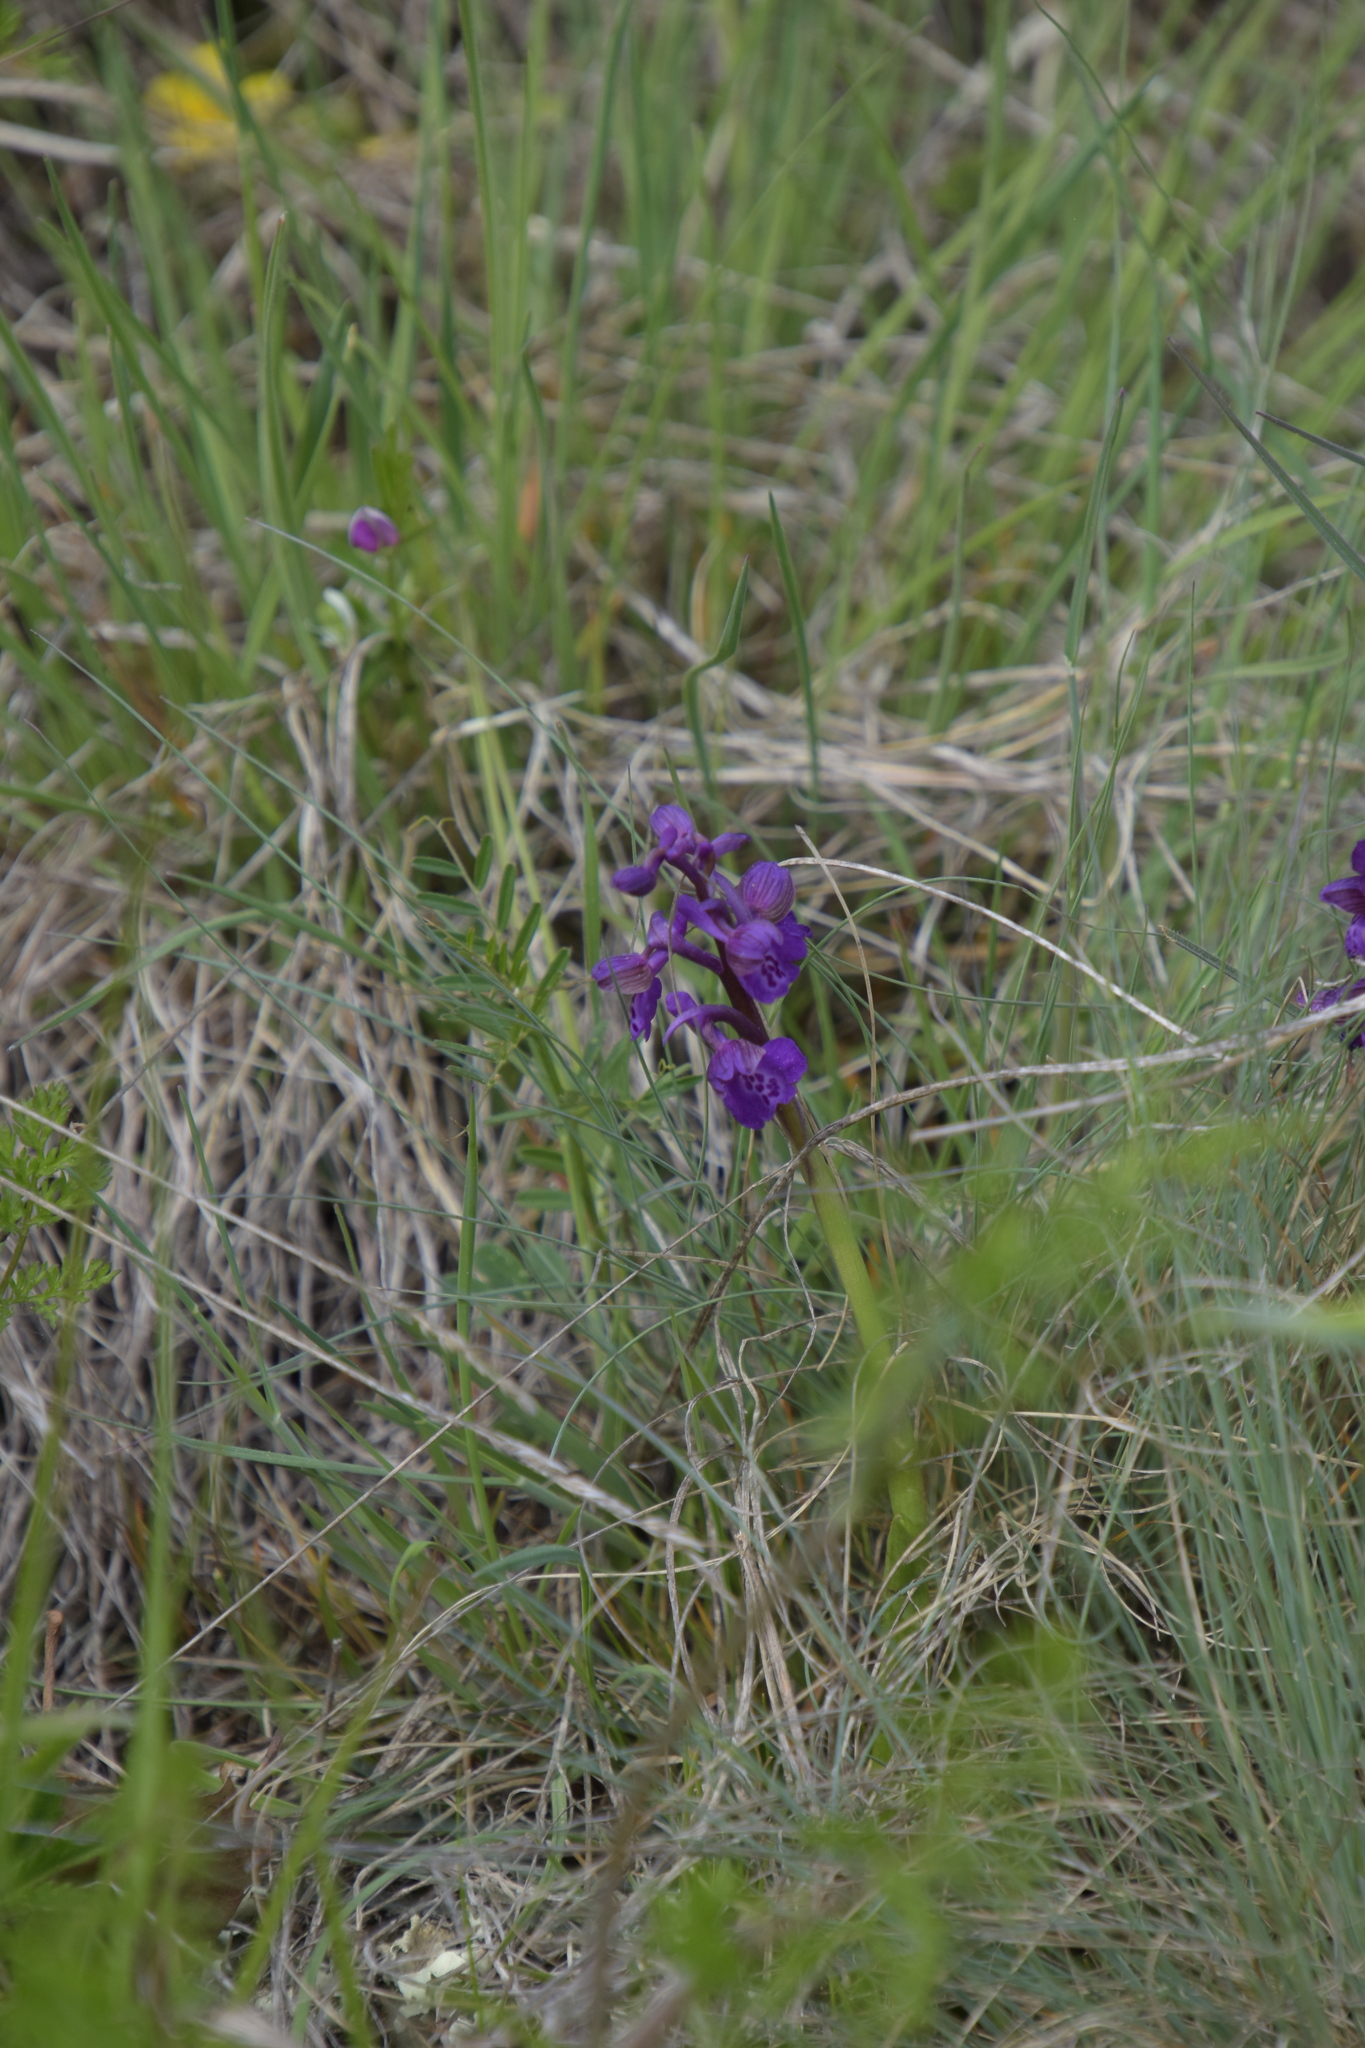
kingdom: Plantae
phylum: Tracheophyta
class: Liliopsida
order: Asparagales
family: Orchidaceae
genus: Anacamptis
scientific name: Anacamptis morio
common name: Green-winged orchid
